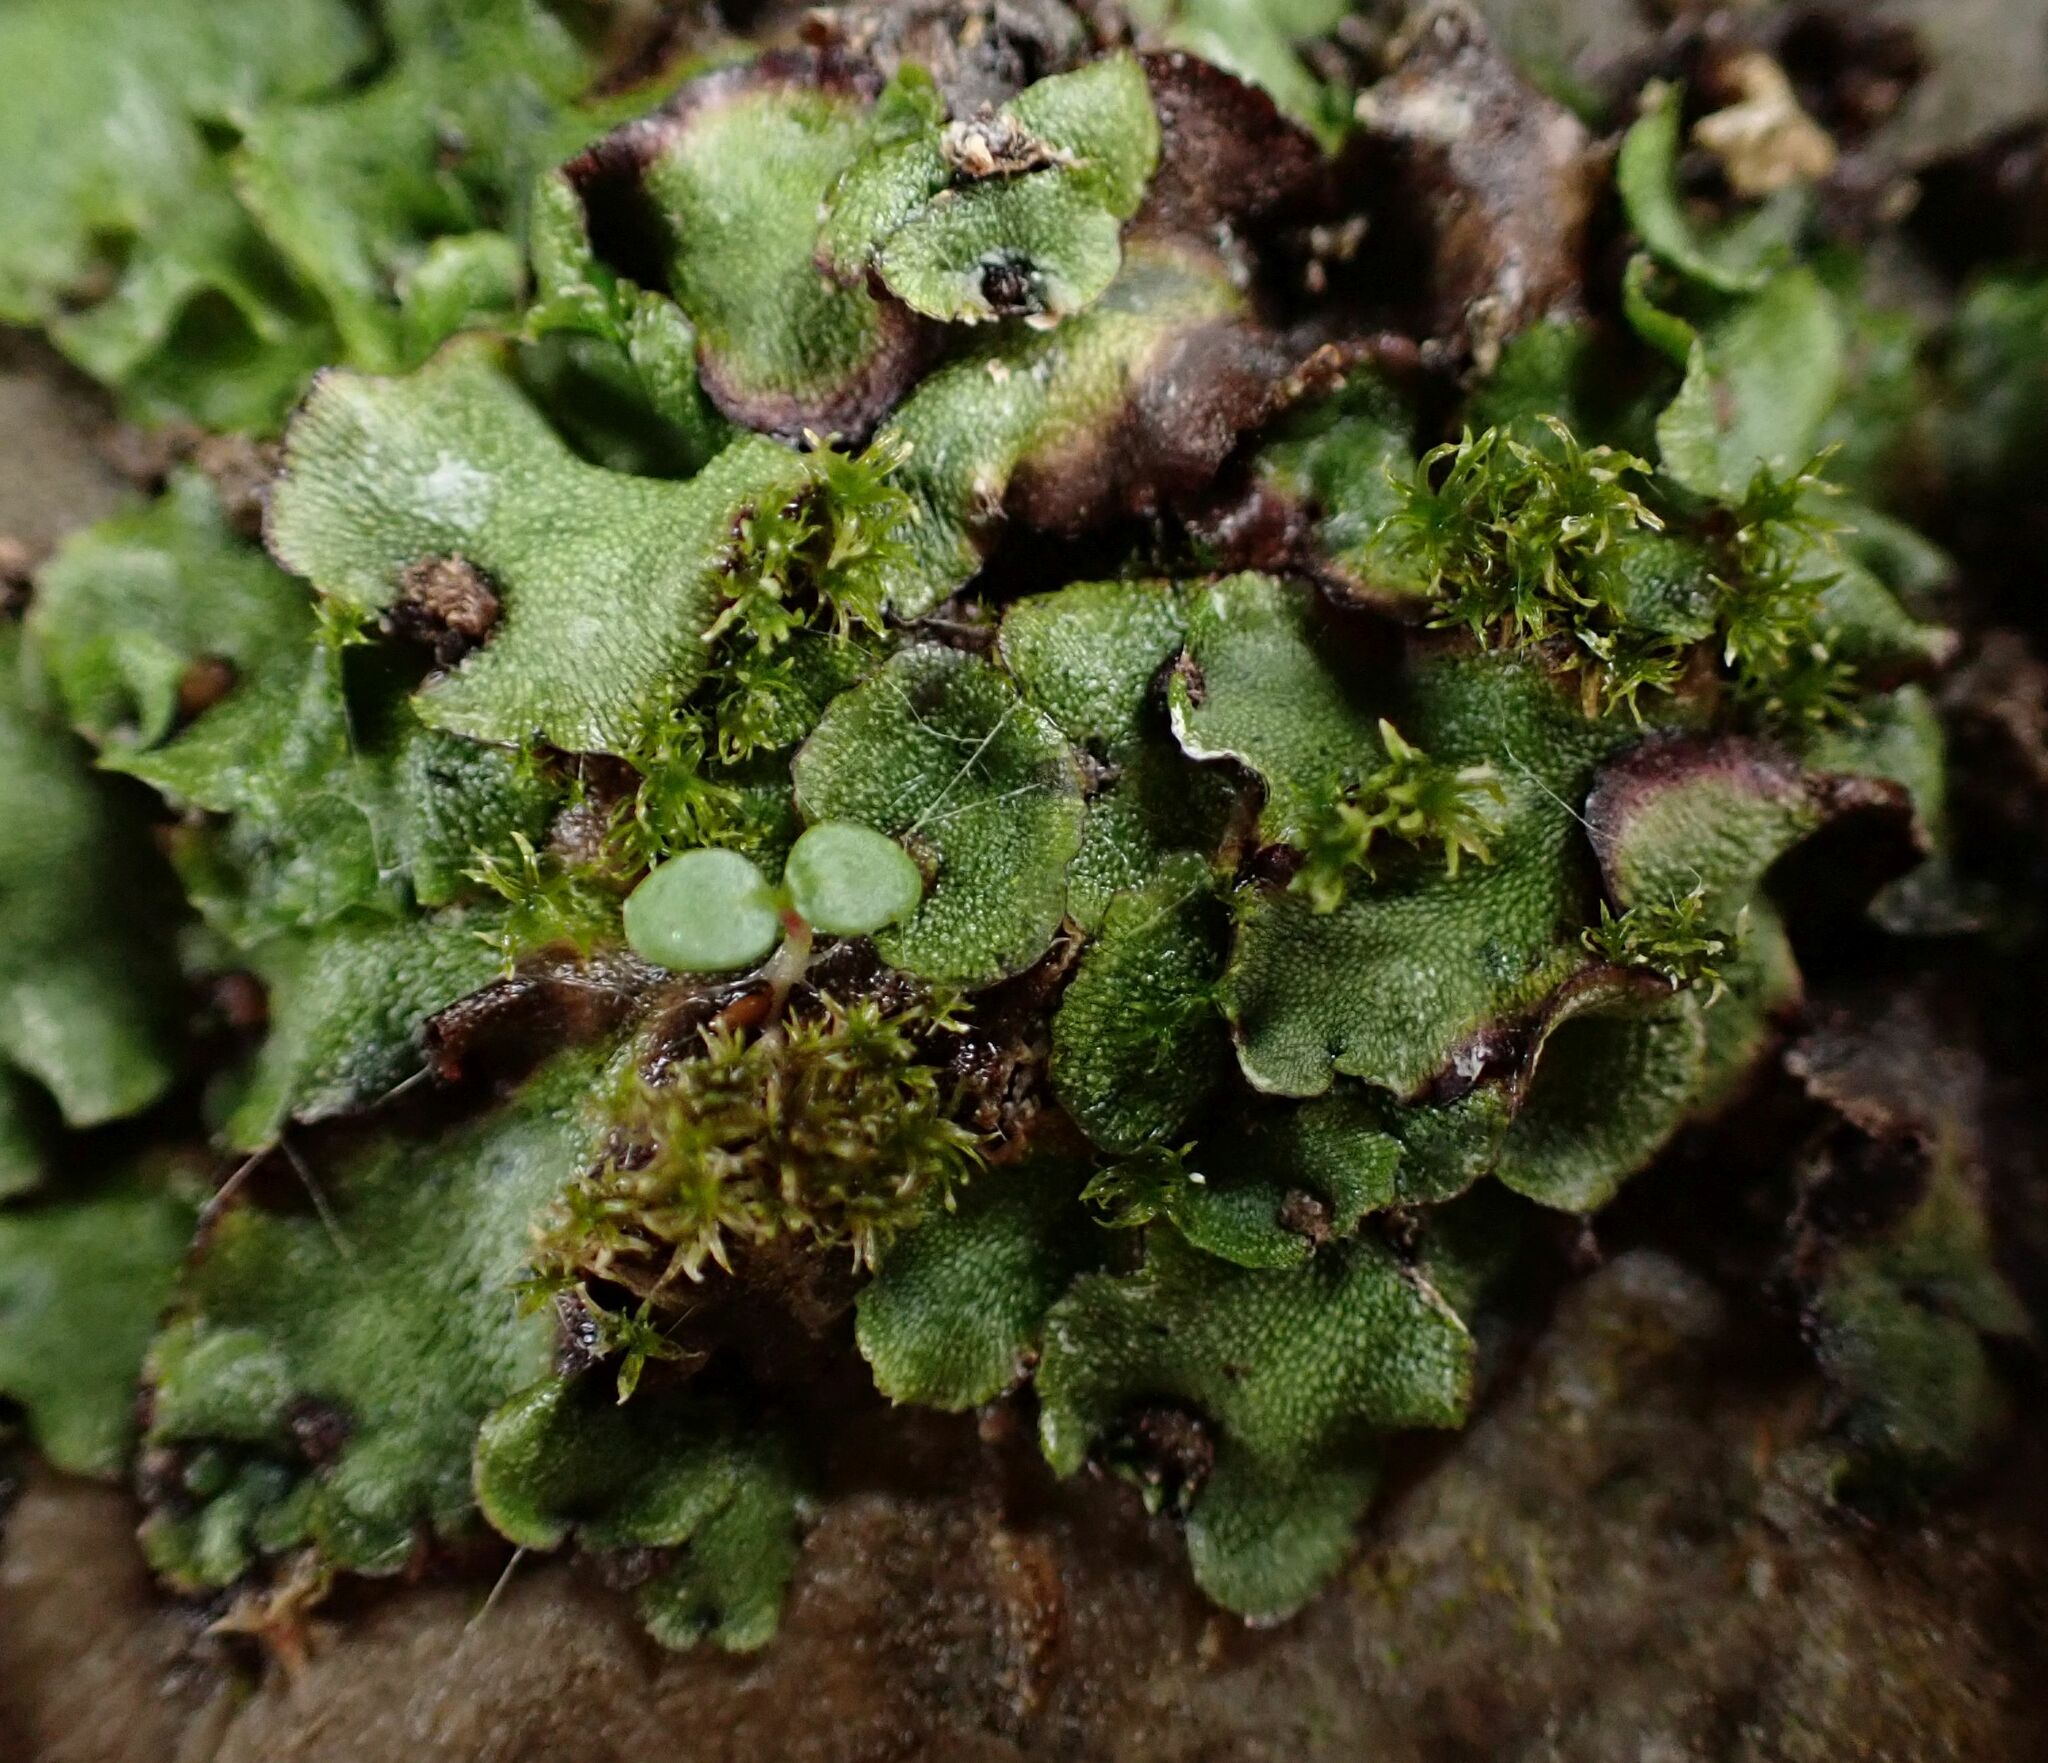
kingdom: Plantae
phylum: Marchantiophyta
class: Marchantiopsida
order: Marchantiales
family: Marchantiaceae
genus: Marchantia
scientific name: Marchantia quadrata
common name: Narrow mushroom-headed liverwort
